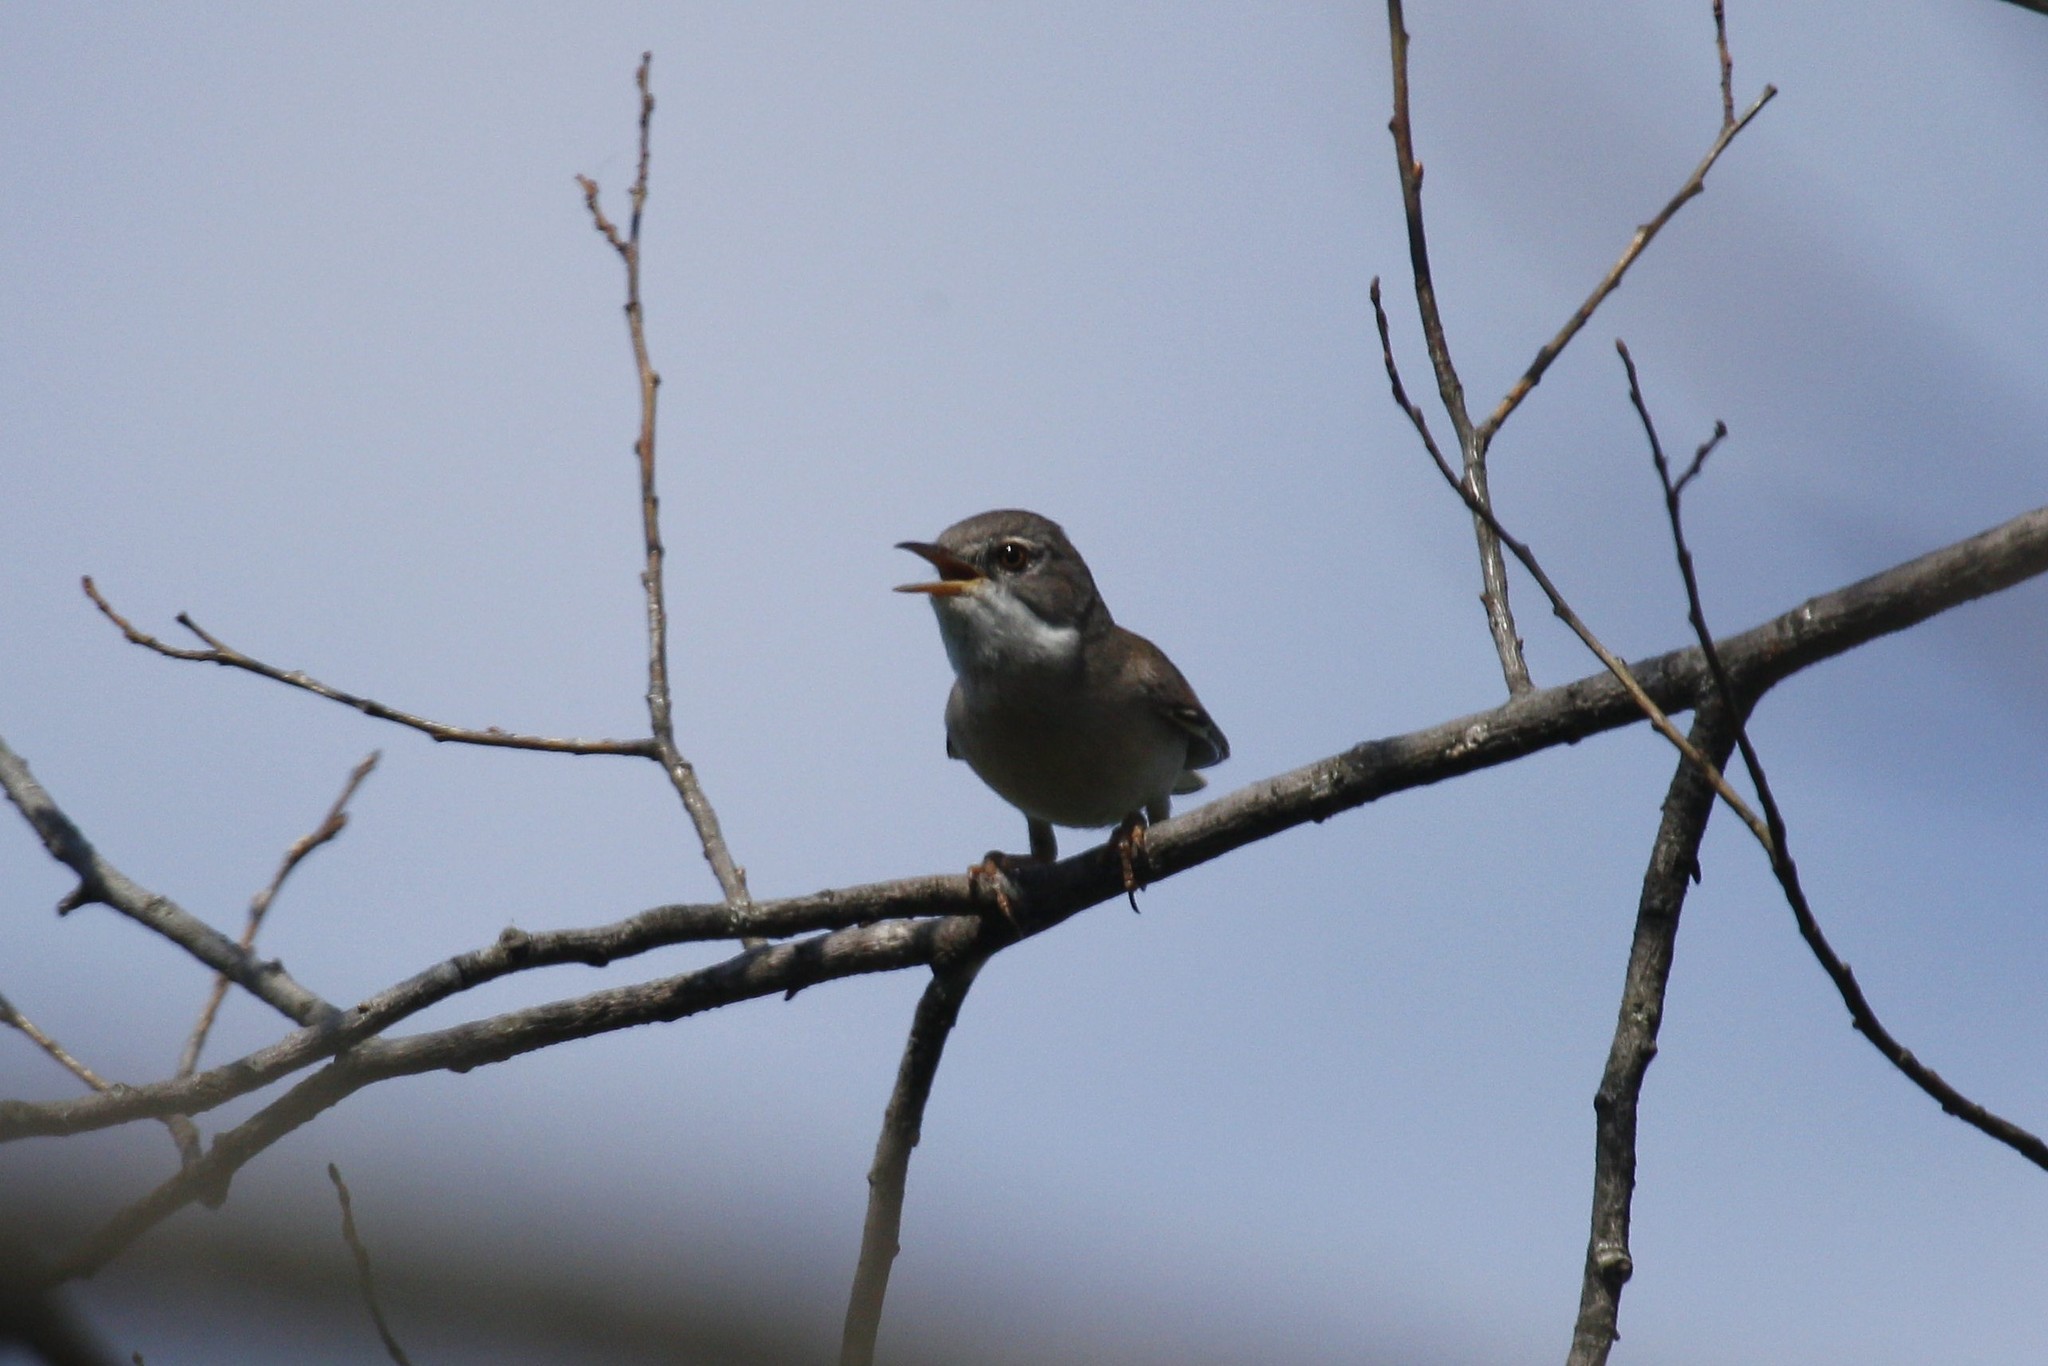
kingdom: Animalia
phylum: Chordata
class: Aves
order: Passeriformes
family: Sylviidae
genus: Sylvia
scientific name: Sylvia communis
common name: Common whitethroat
